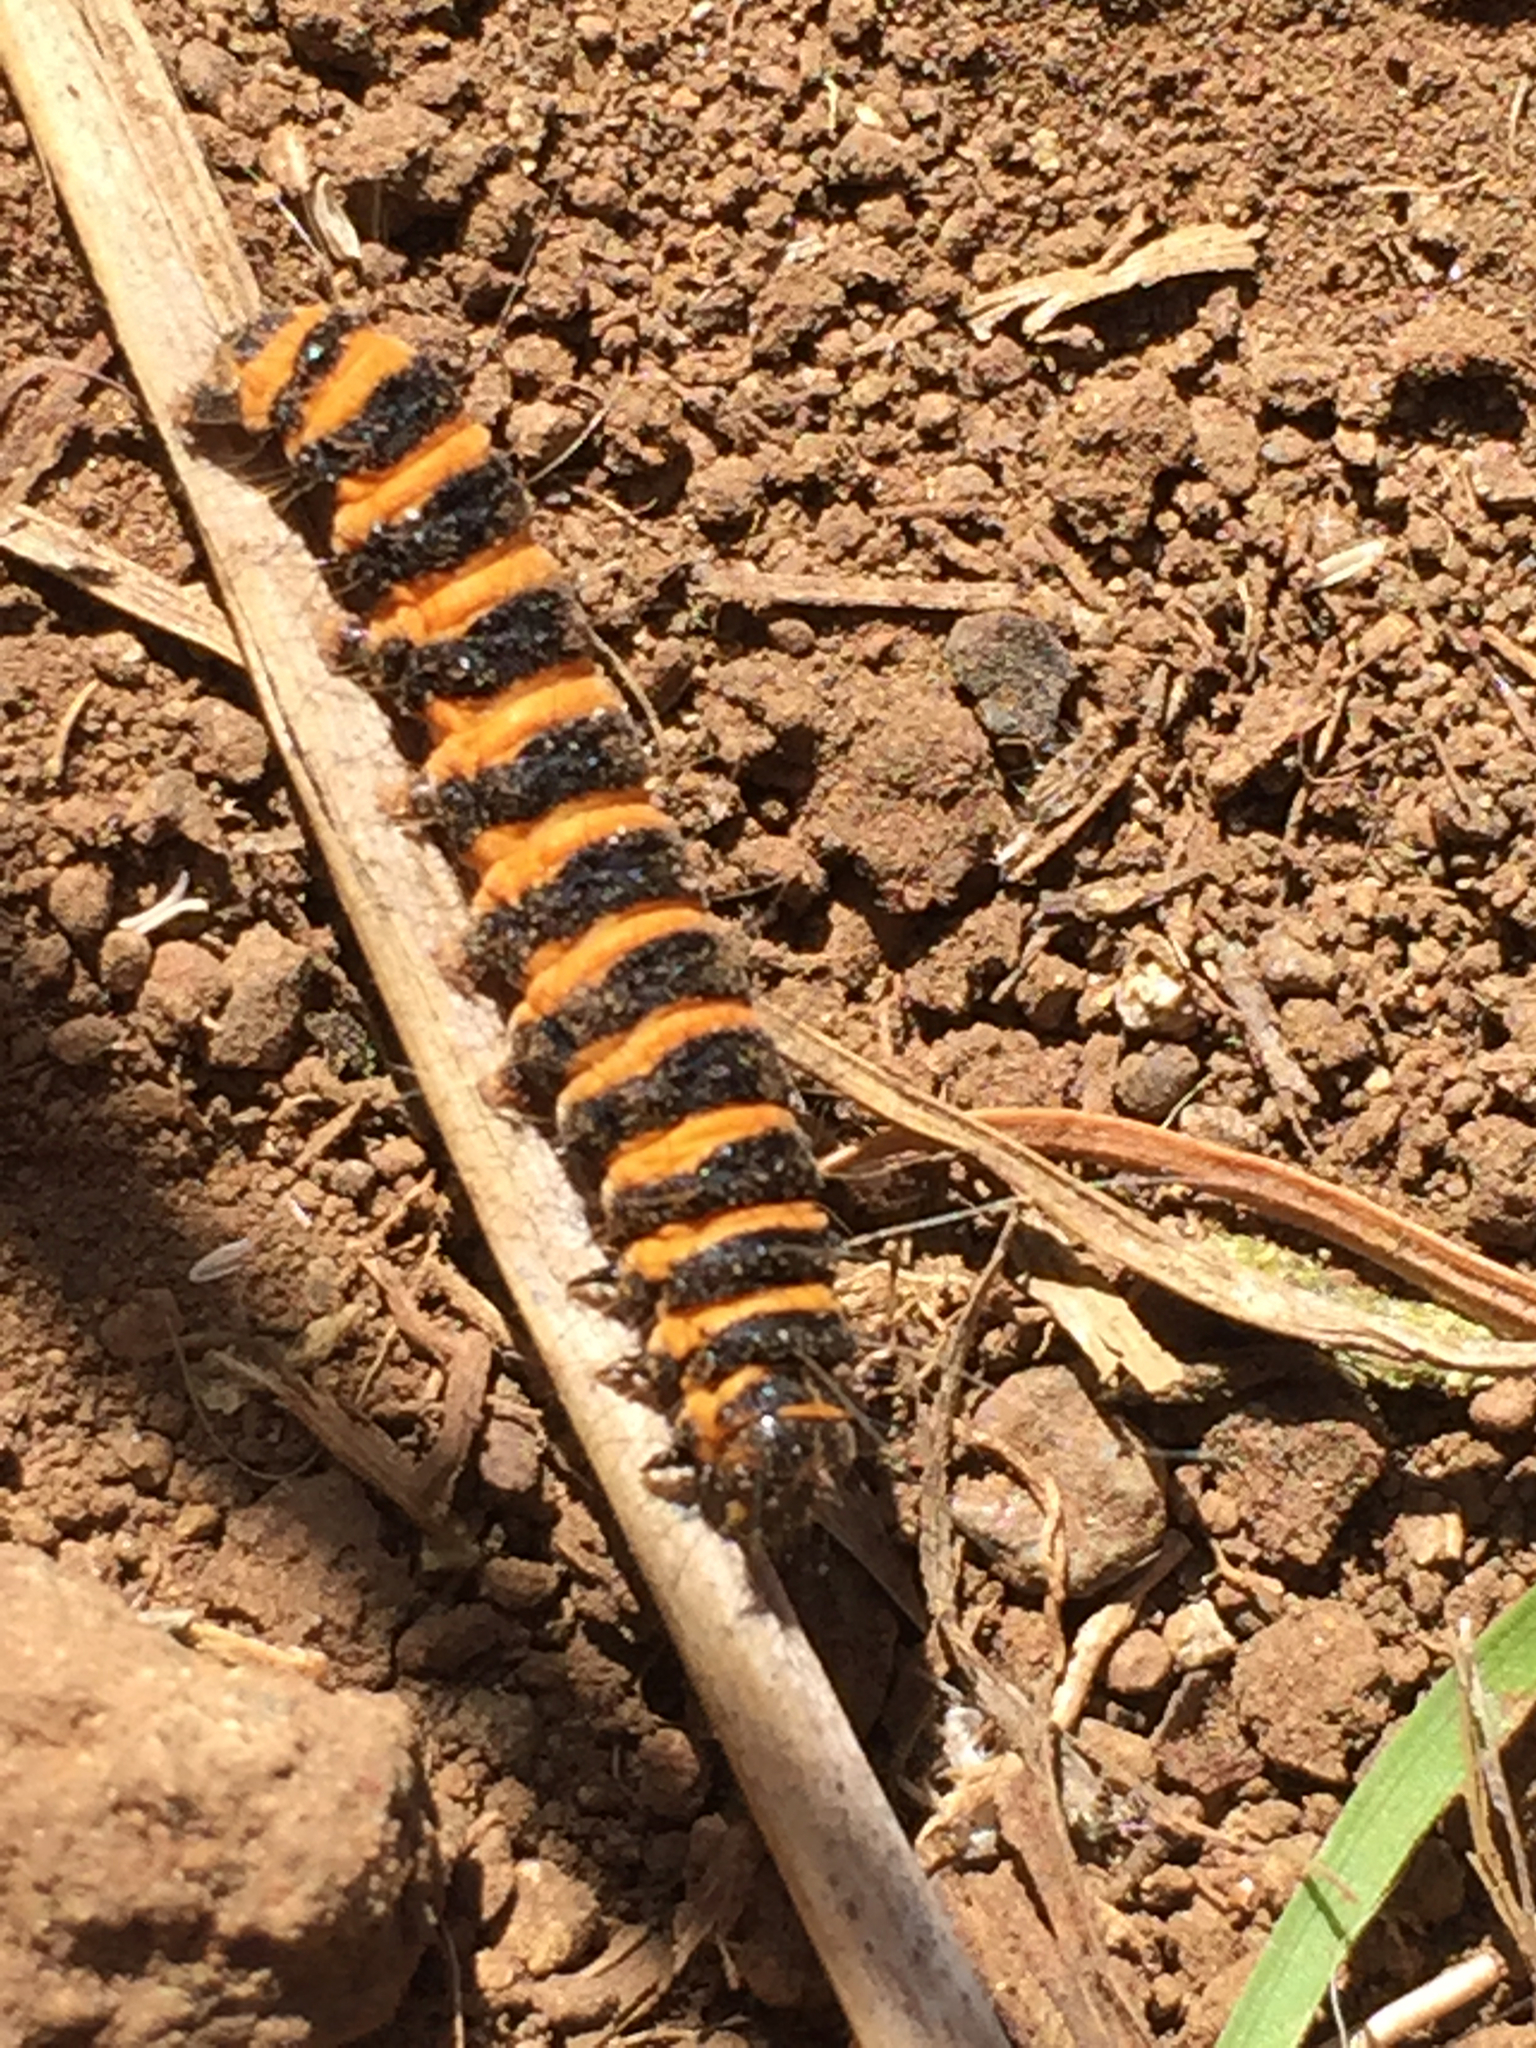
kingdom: Animalia
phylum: Arthropoda
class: Insecta
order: Lepidoptera
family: Erebidae
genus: Tyria
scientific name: Tyria jacobaeae
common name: Cinnabar
